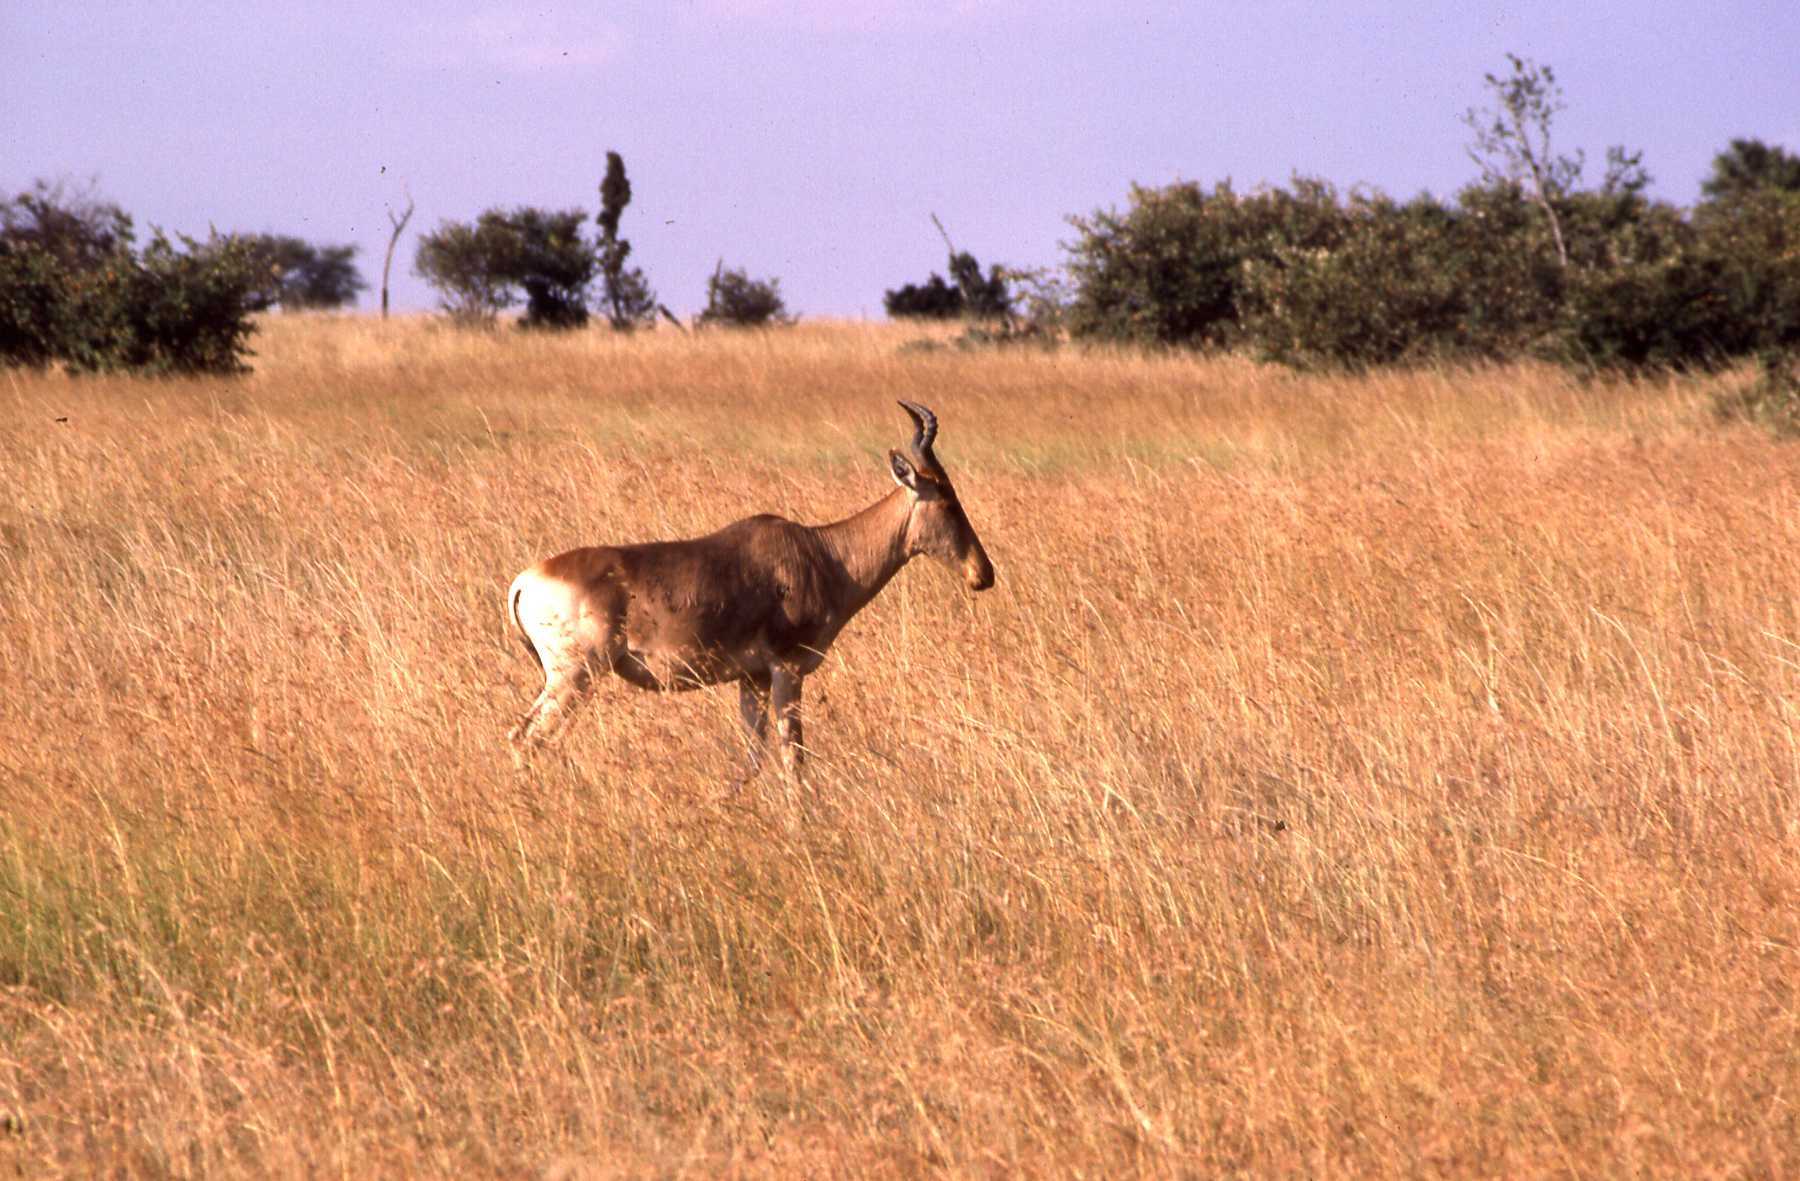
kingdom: Animalia
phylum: Chordata
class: Mammalia
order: Artiodactyla
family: Bovidae
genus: Alcelaphus
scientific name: Alcelaphus buselaphus
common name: Hartebeest
